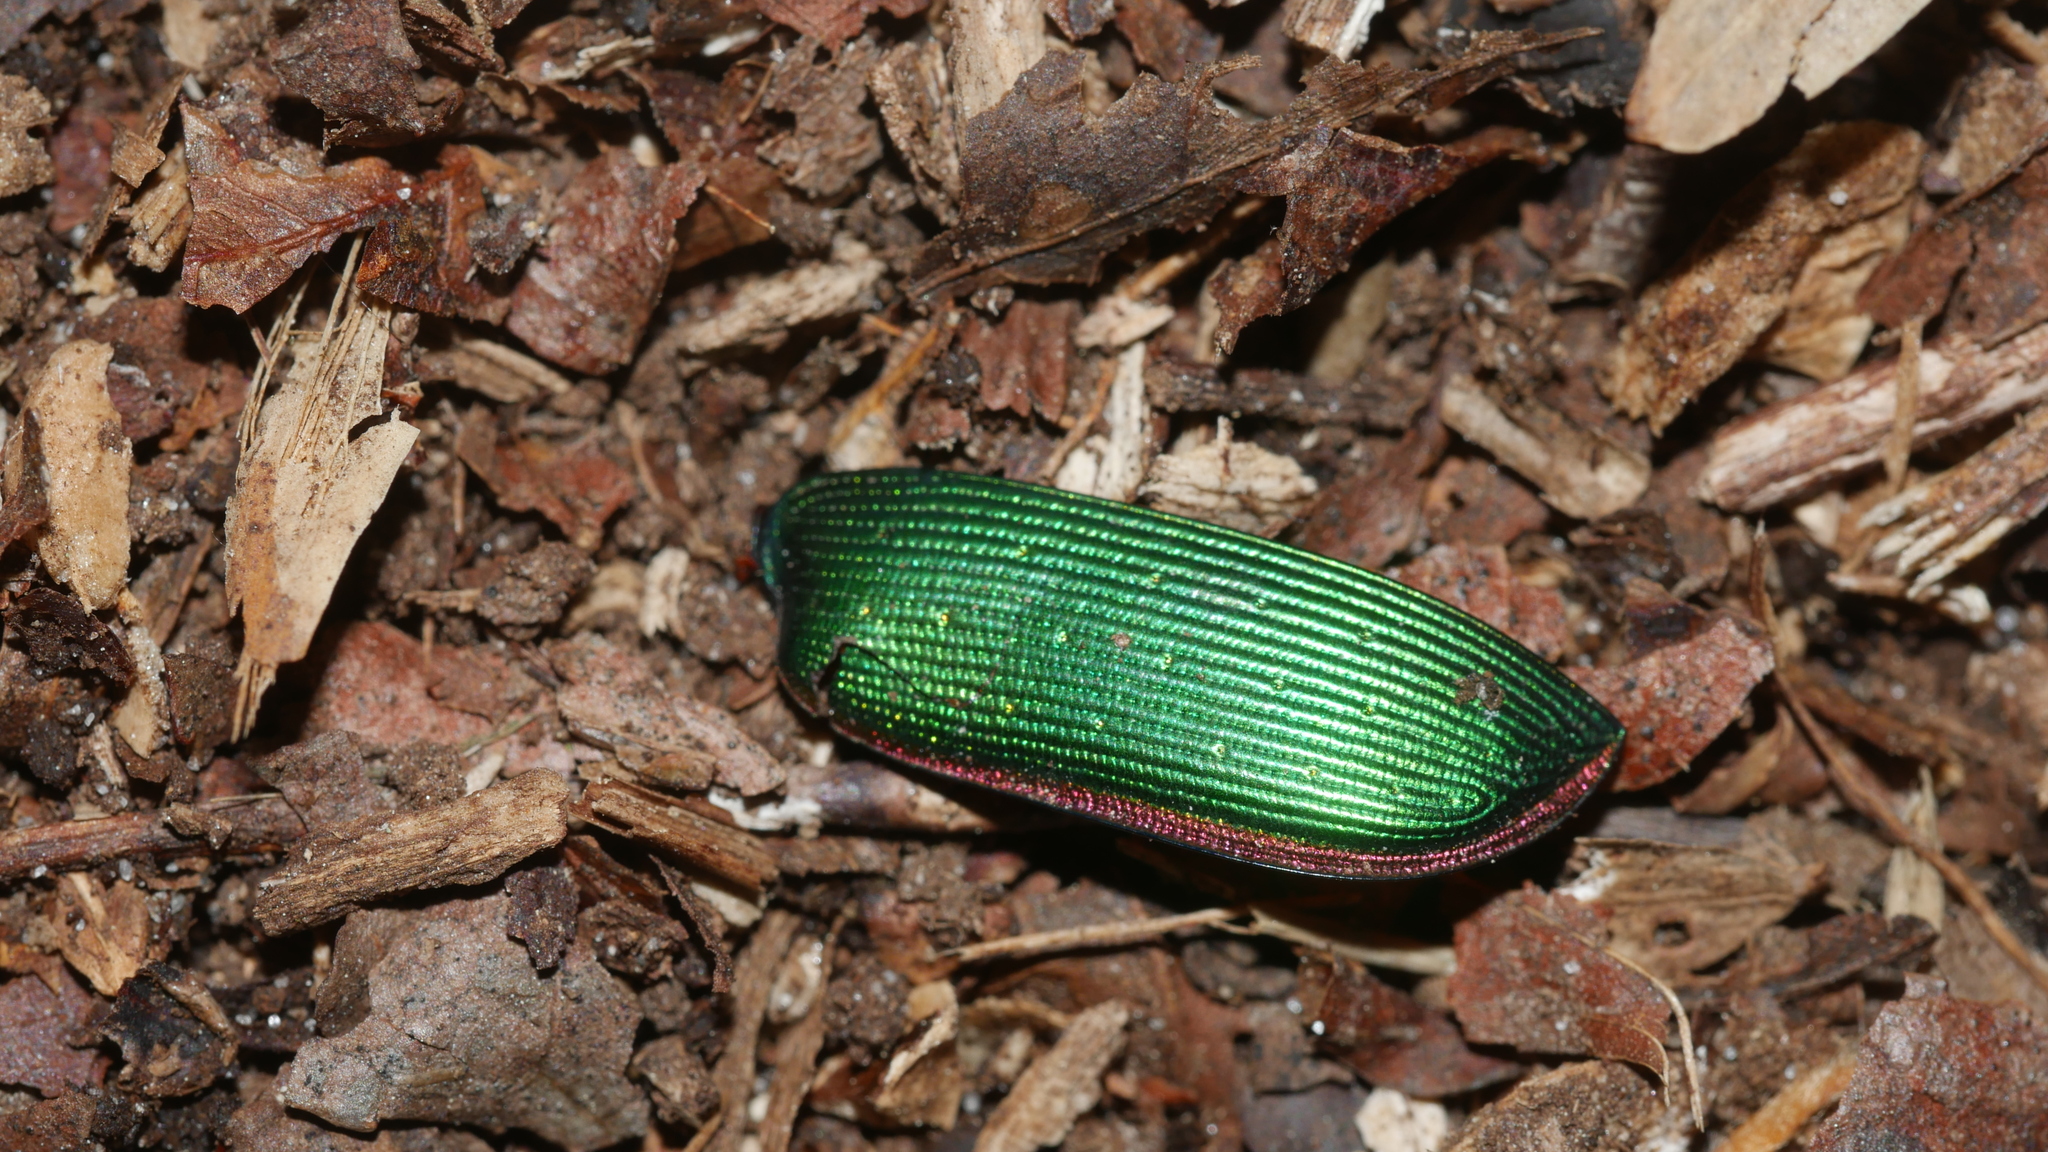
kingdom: Animalia
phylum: Arthropoda
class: Insecta
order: Coleoptera
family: Carabidae
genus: Calosoma
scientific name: Calosoma scrutator
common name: Fiery searcher beetle
